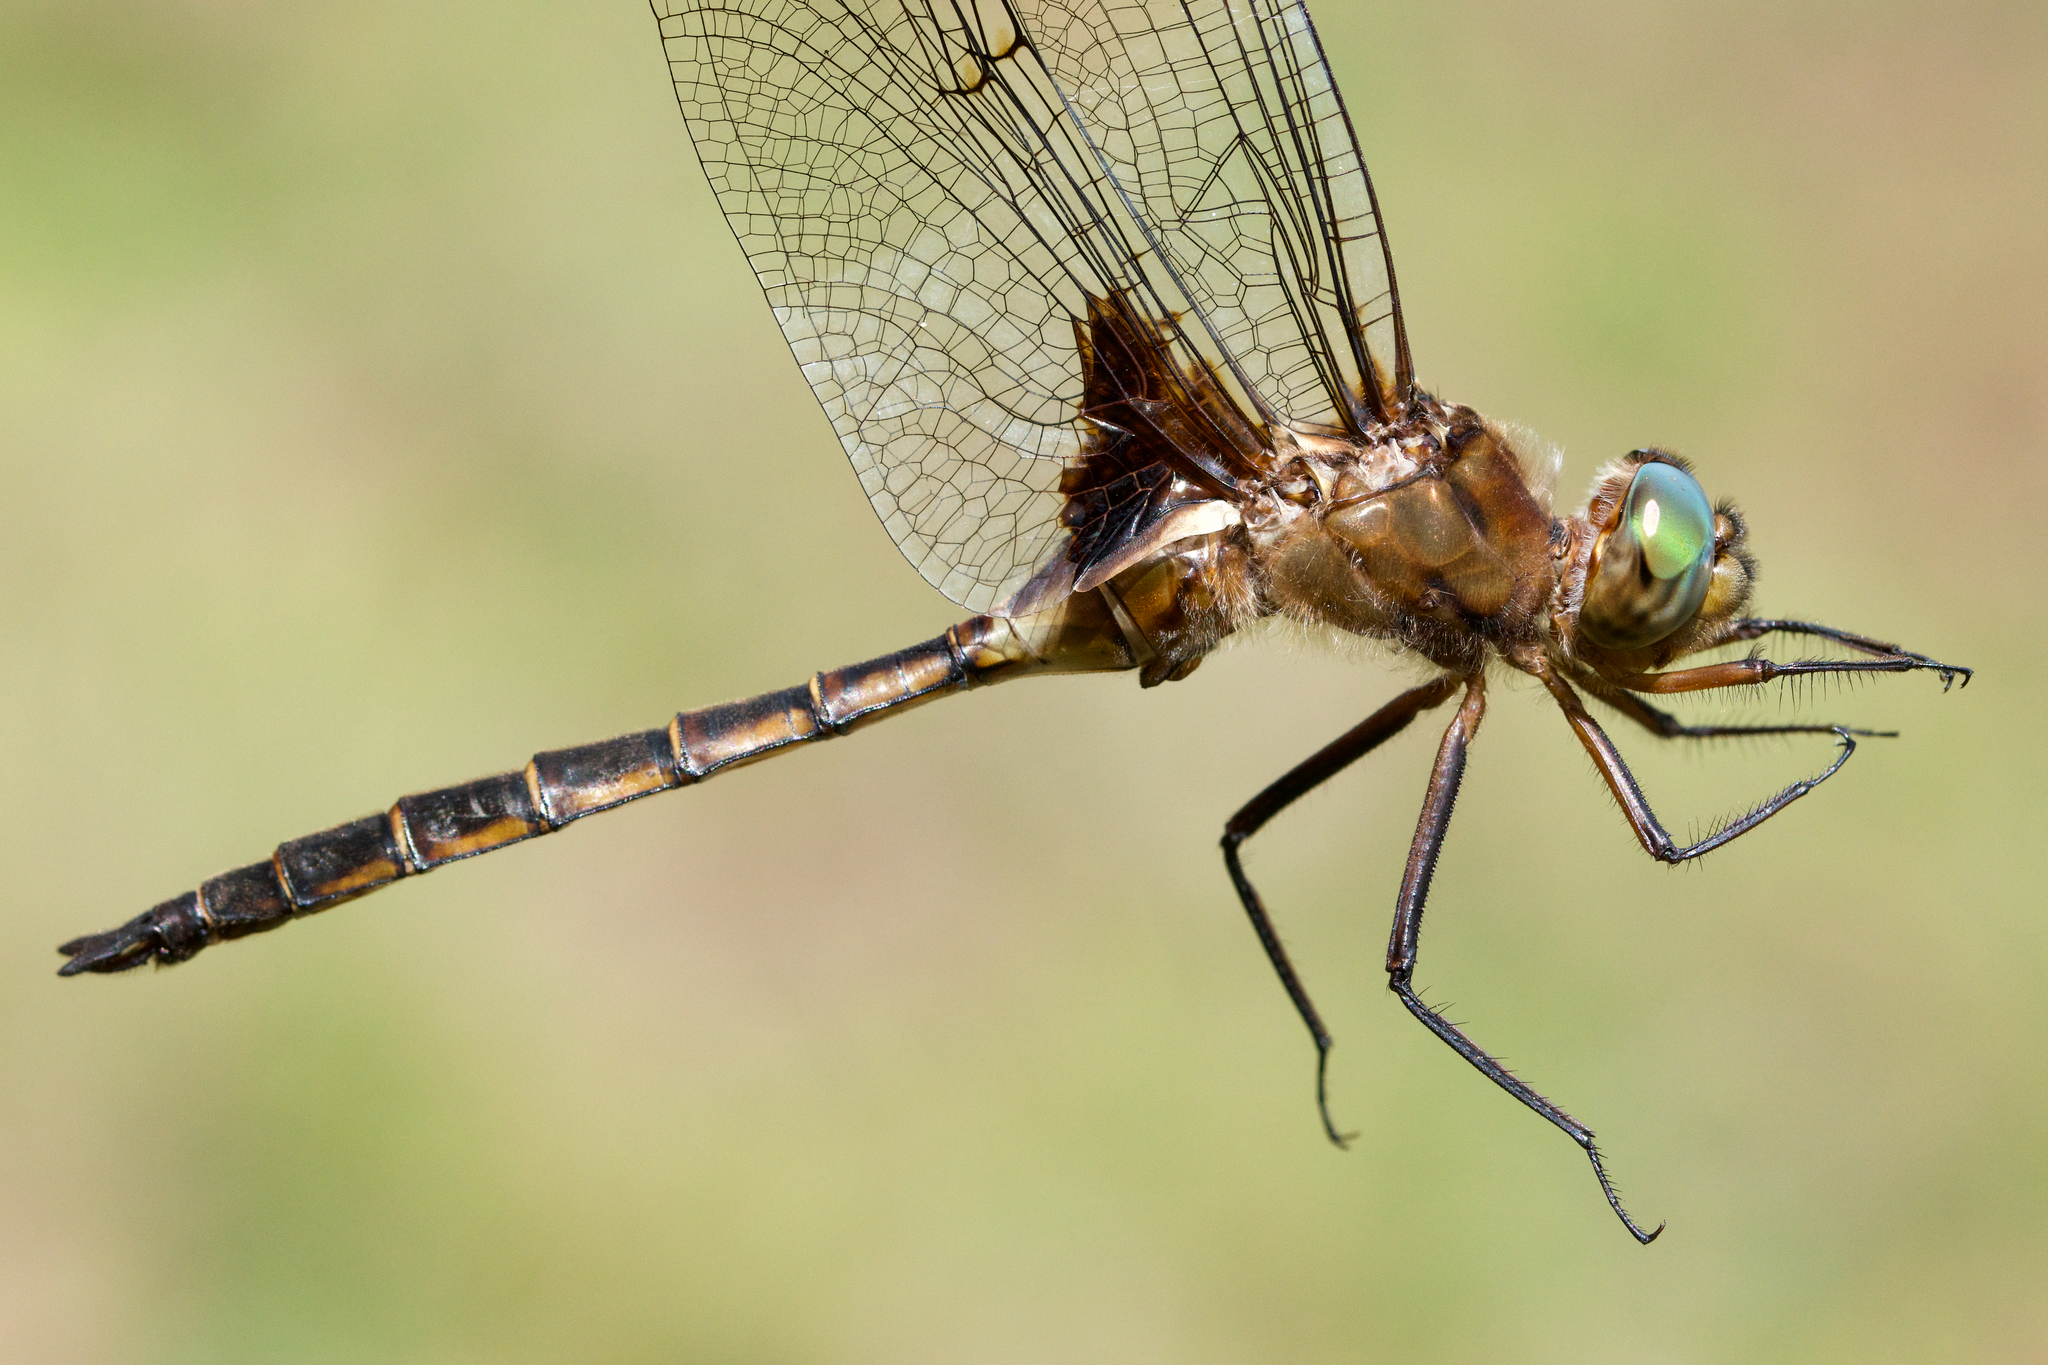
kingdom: Animalia
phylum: Arthropoda
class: Insecta
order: Odonata
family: Corduliidae
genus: Epitheca
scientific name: Epitheca princeps
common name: Prince baskettail
